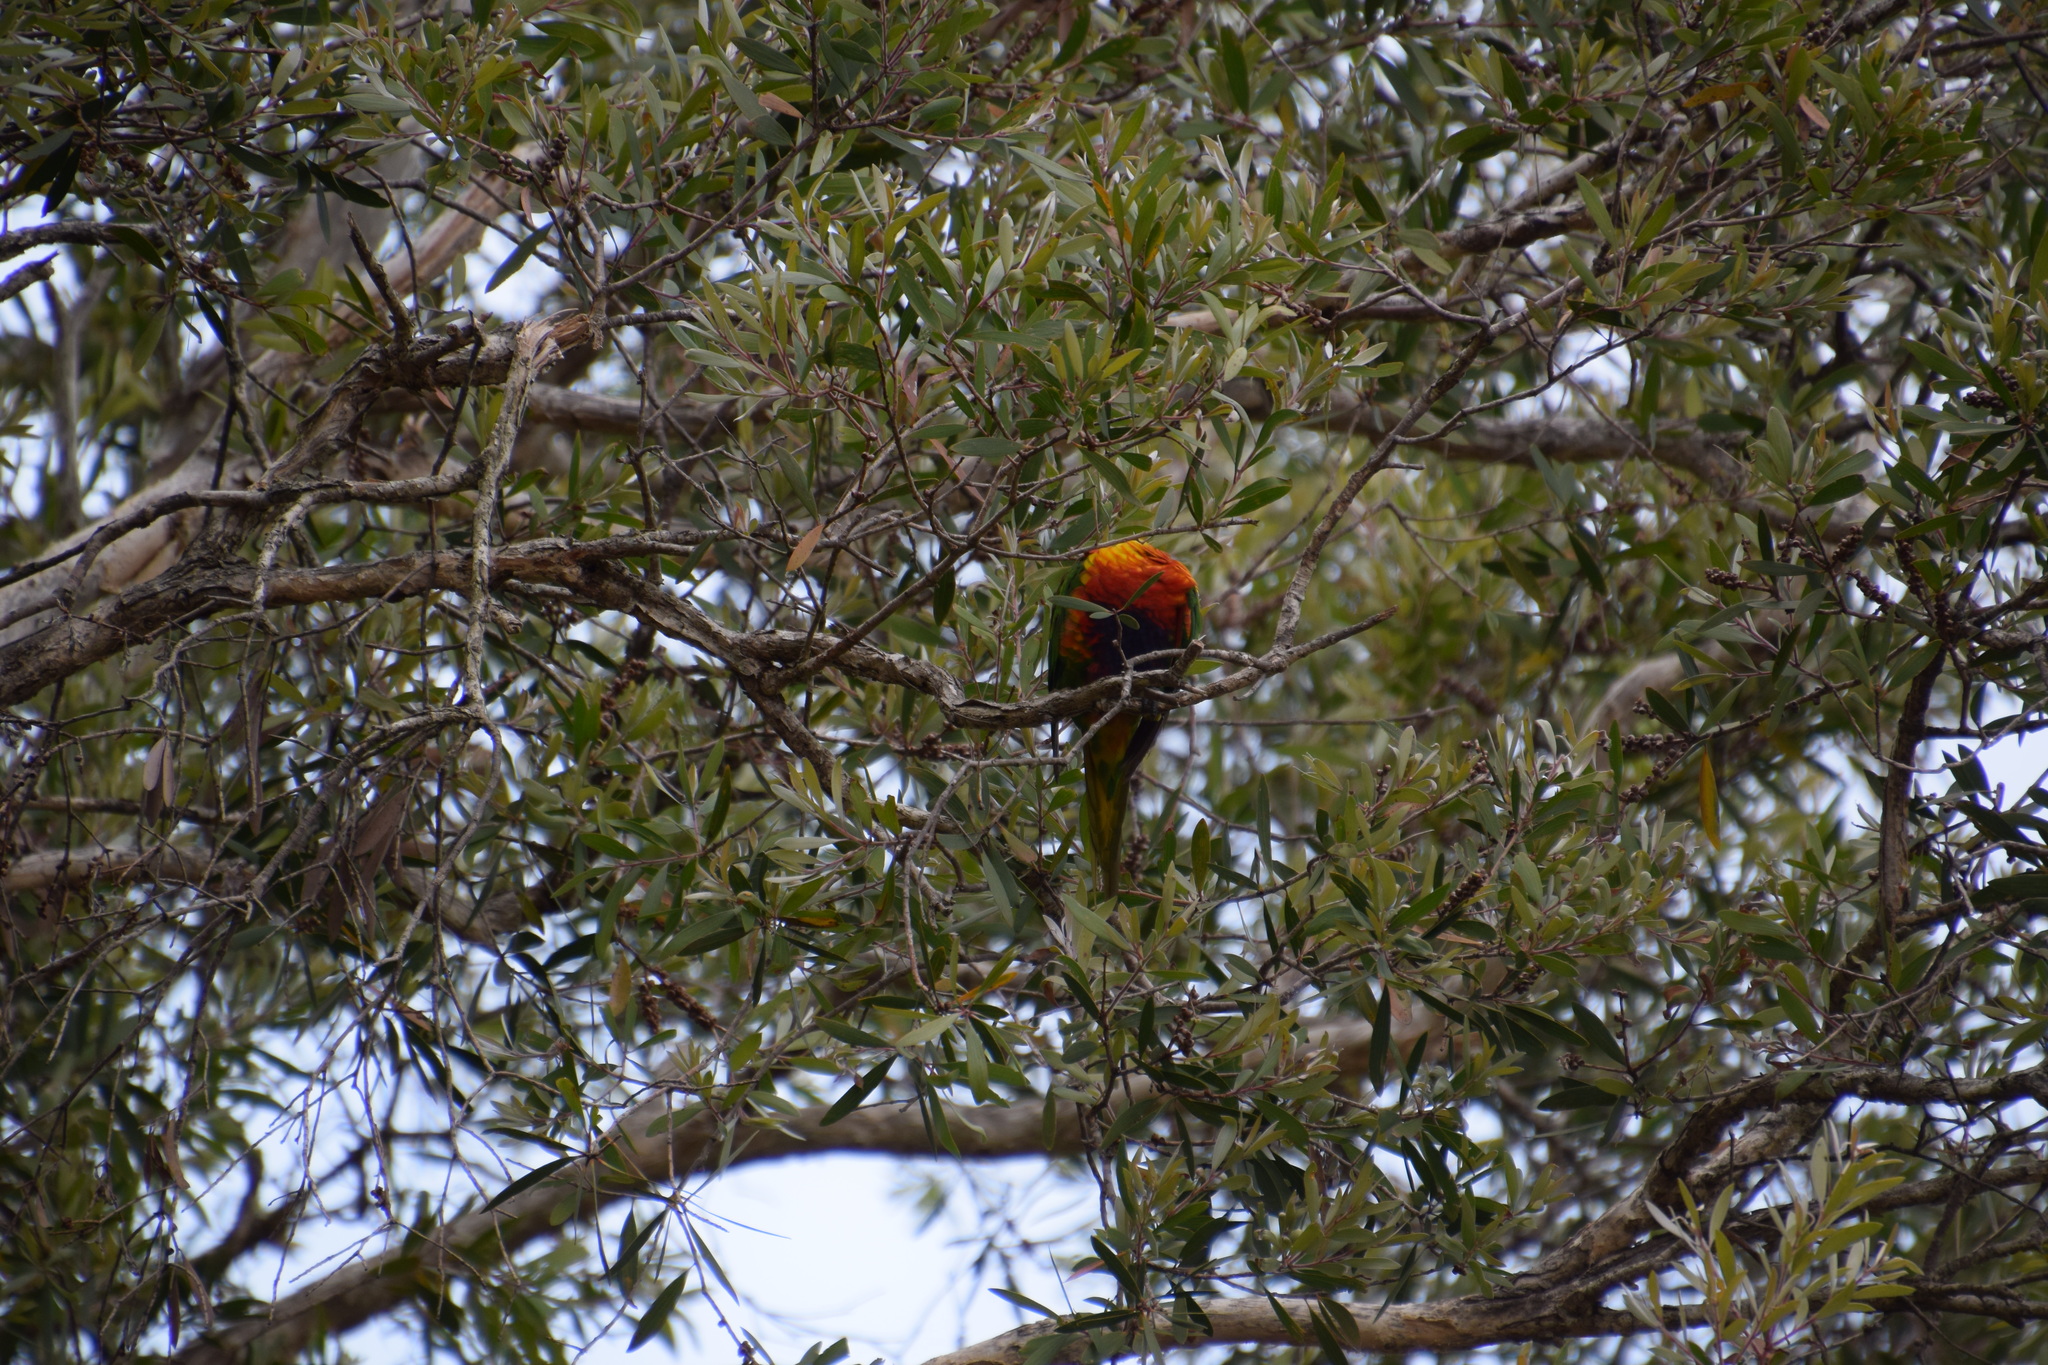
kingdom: Animalia
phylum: Chordata
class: Aves
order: Psittaciformes
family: Psittacidae
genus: Trichoglossus
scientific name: Trichoglossus haematodus
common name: Coconut lorikeet
